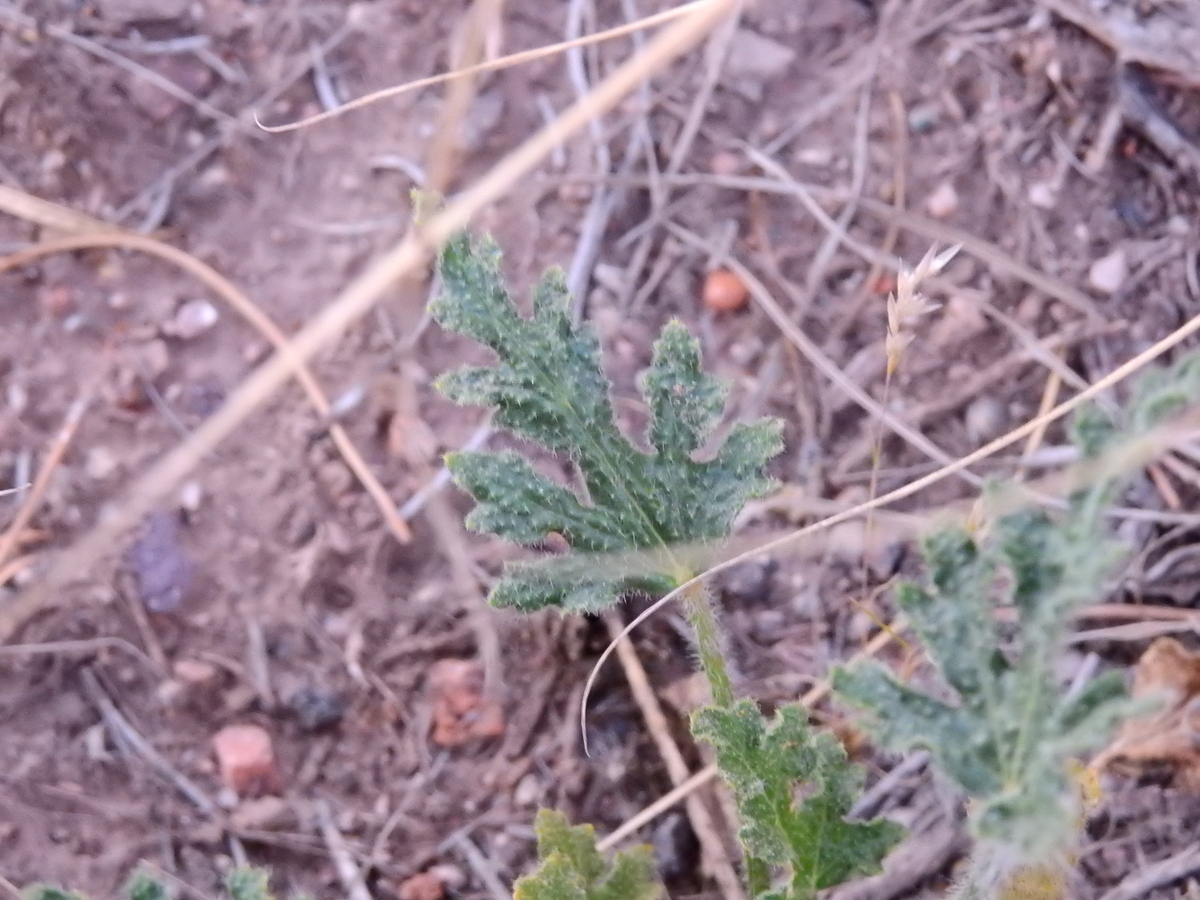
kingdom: Plantae
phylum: Tracheophyta
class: Magnoliopsida
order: Malvales
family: Malvaceae
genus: Lecanophora
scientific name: Lecanophora heterophylla
